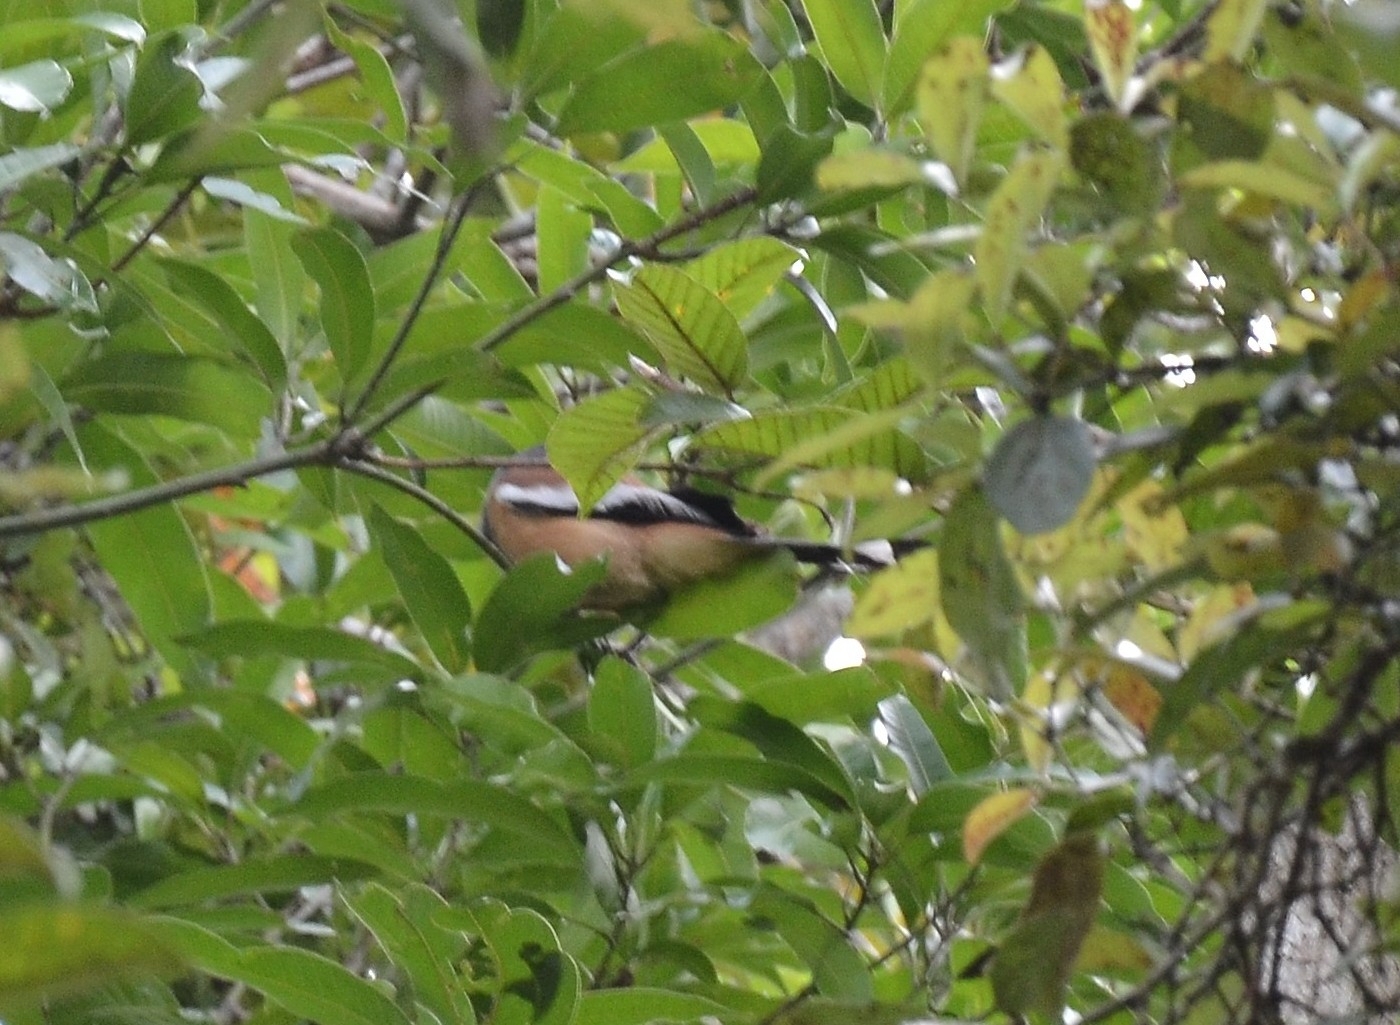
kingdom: Animalia
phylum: Chordata
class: Aves
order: Passeriformes
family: Corvidae
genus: Dendrocitta
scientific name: Dendrocitta vagabunda
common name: Rufous treepie
